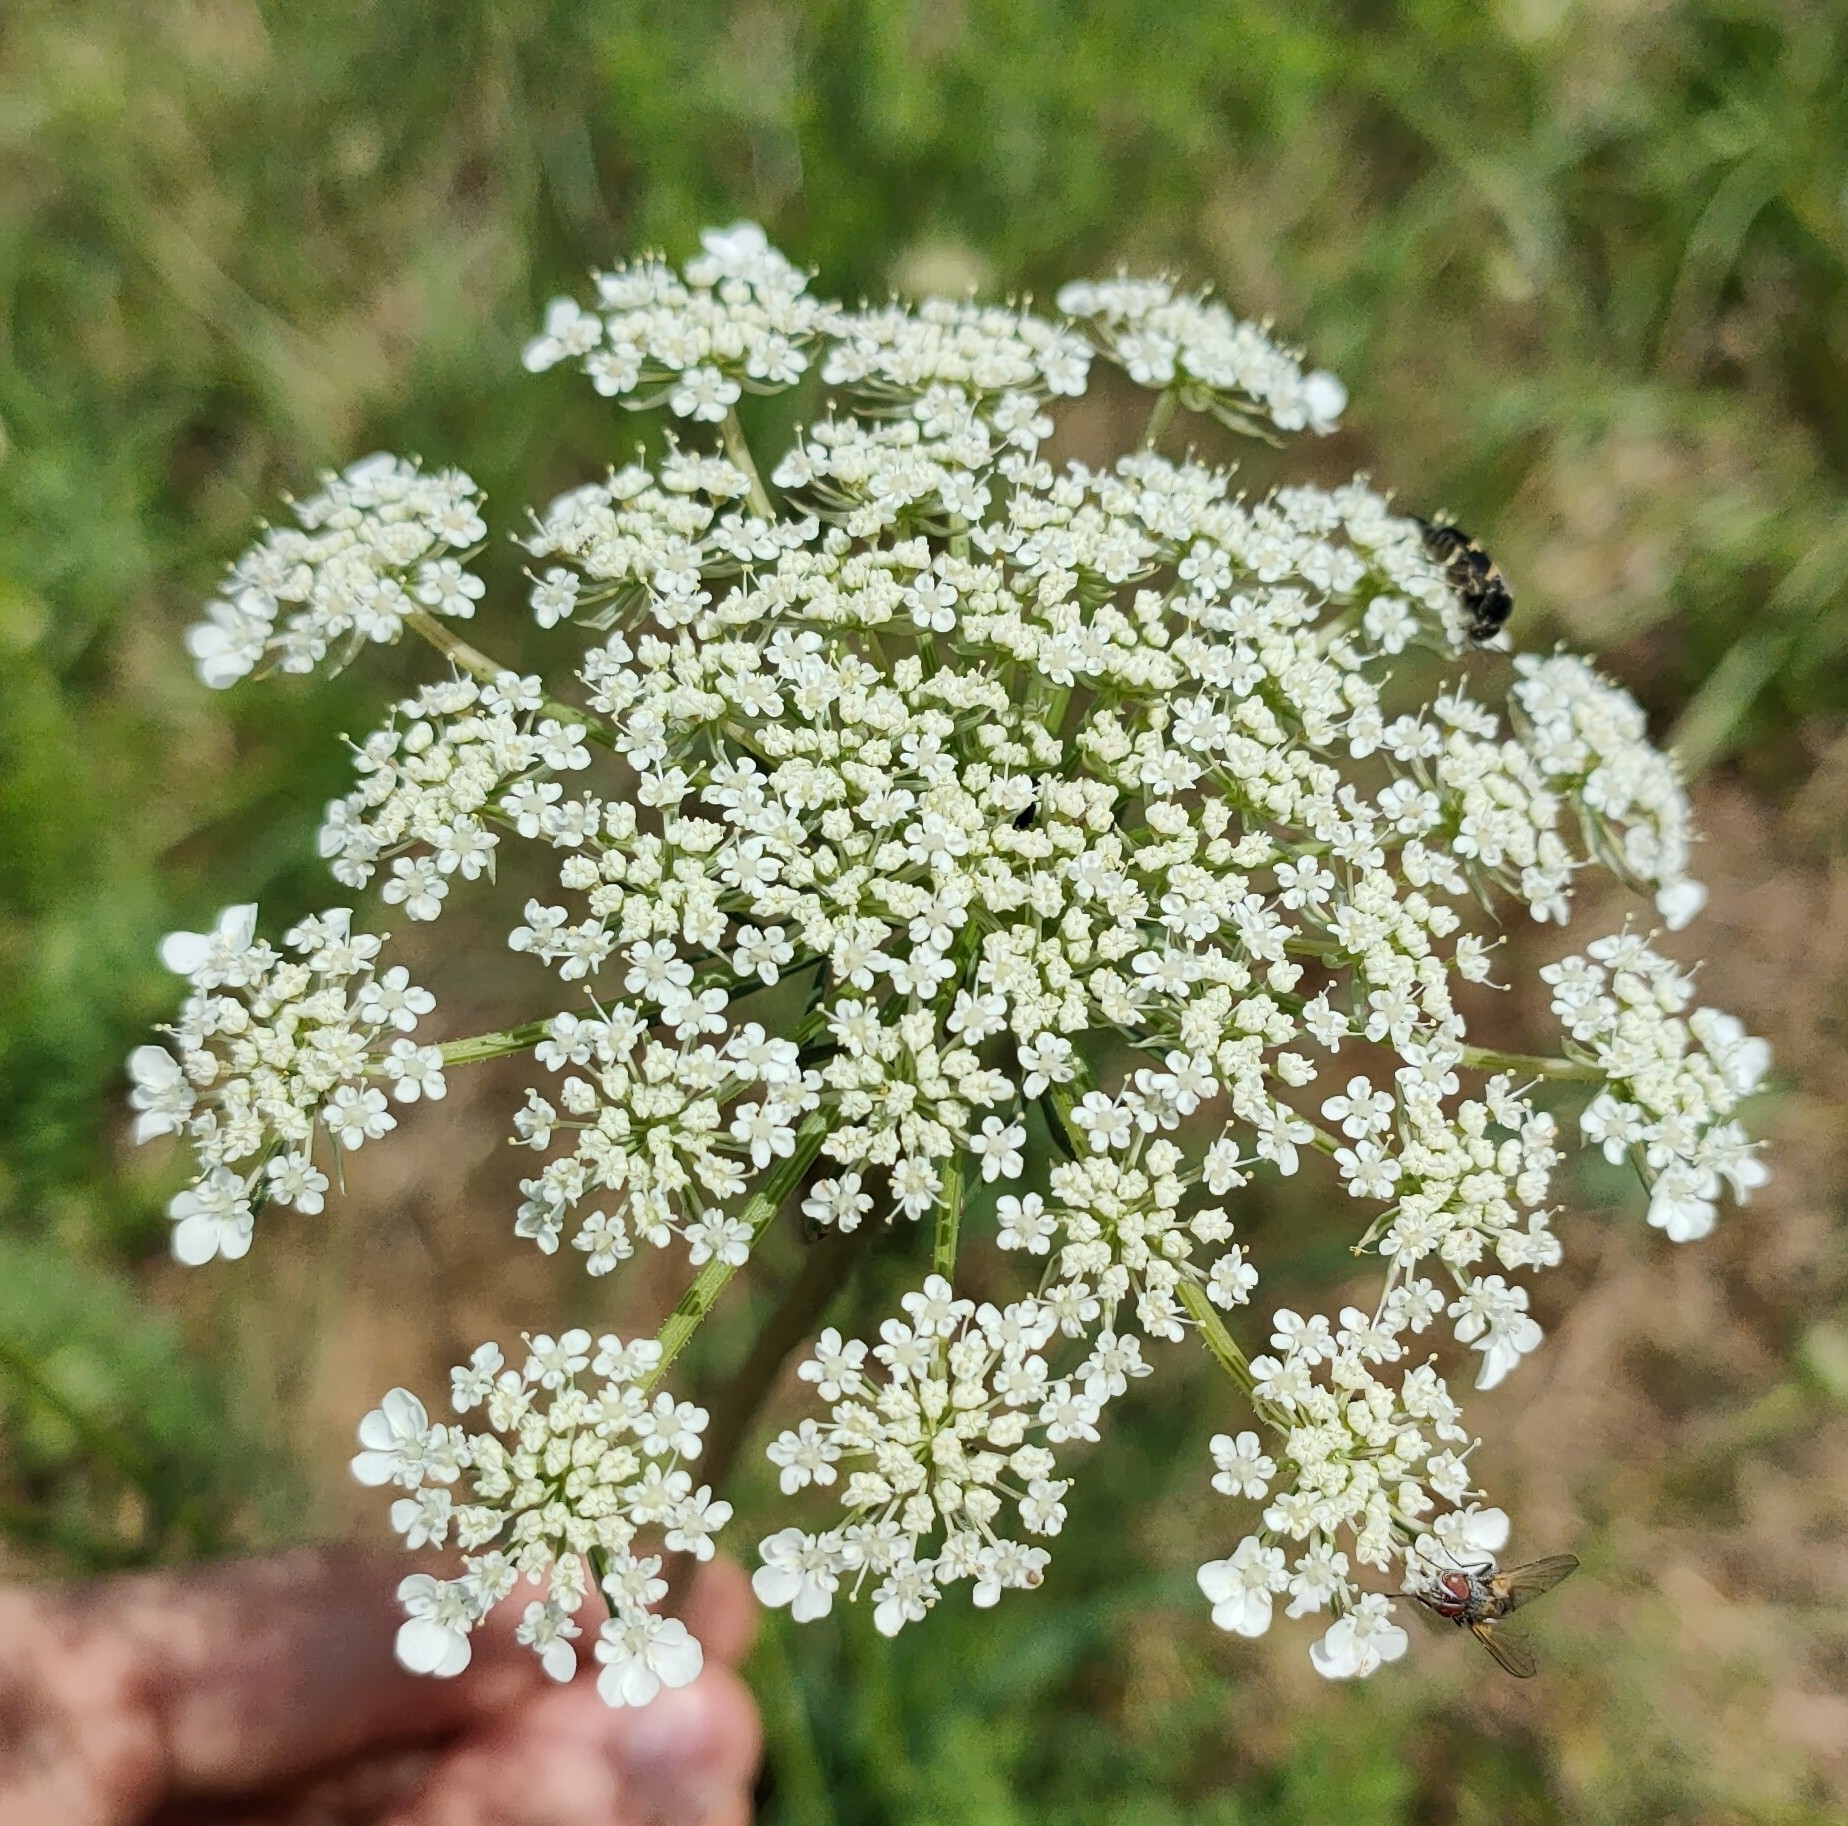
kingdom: Plantae
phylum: Tracheophyta
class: Magnoliopsida
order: Apiales
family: Apiaceae
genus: Daucus
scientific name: Daucus carota
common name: Wild carrot
